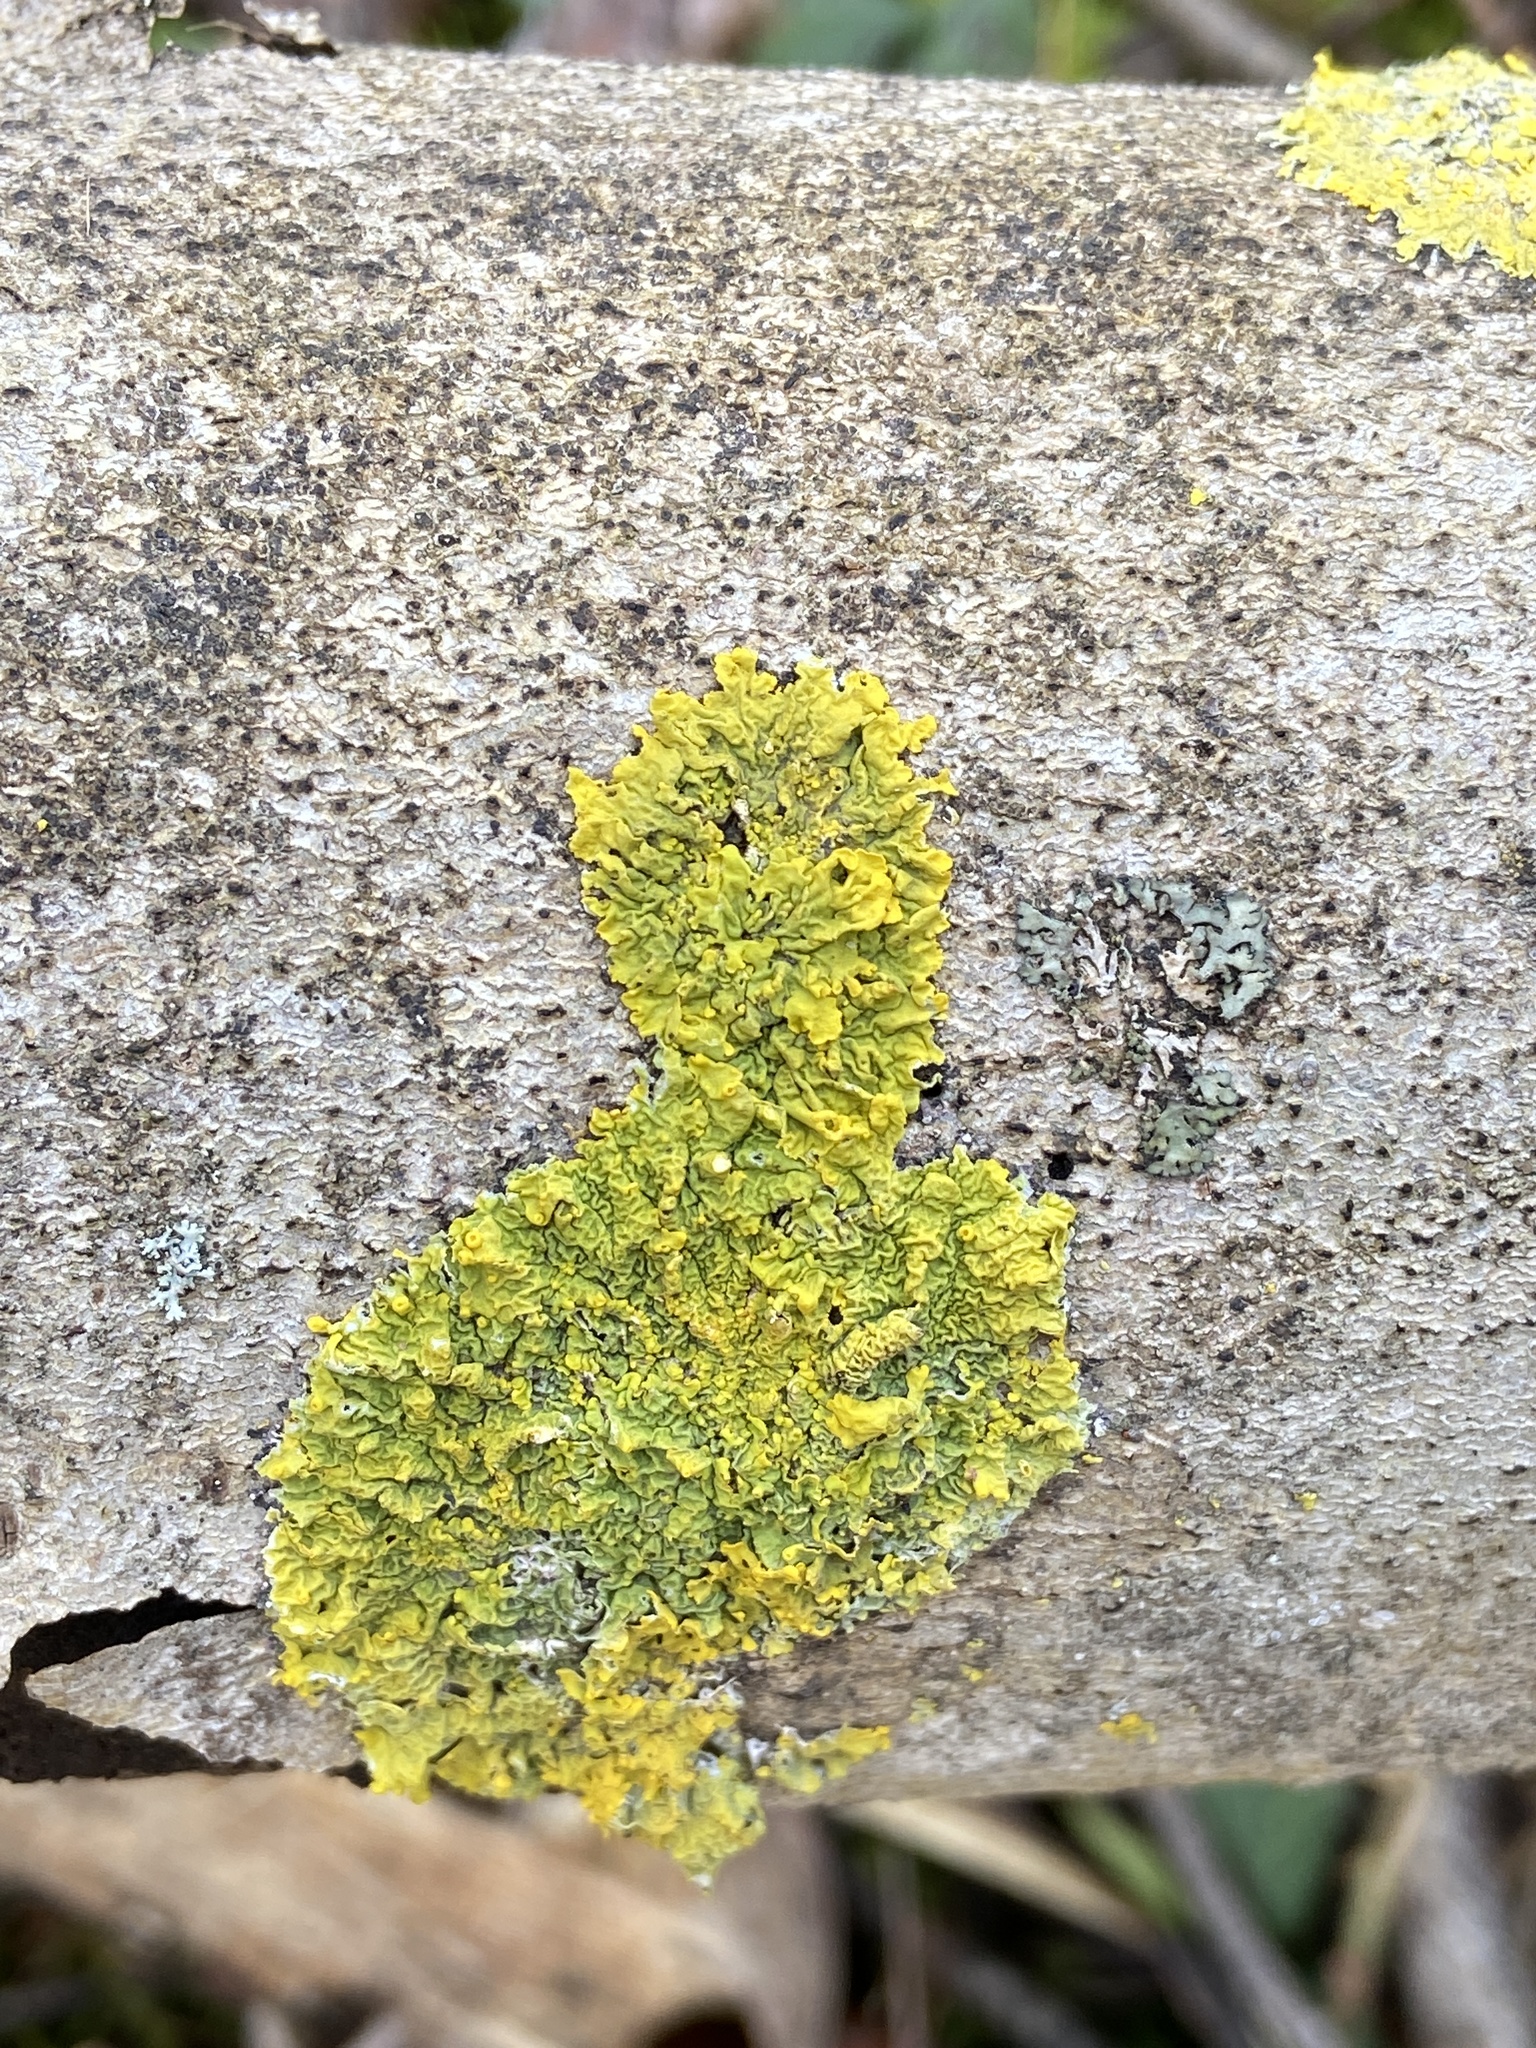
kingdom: Fungi
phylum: Ascomycota
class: Lecanoromycetes
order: Teloschistales
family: Teloschistaceae
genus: Xanthoria
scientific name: Xanthoria parietina
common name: Common orange lichen
